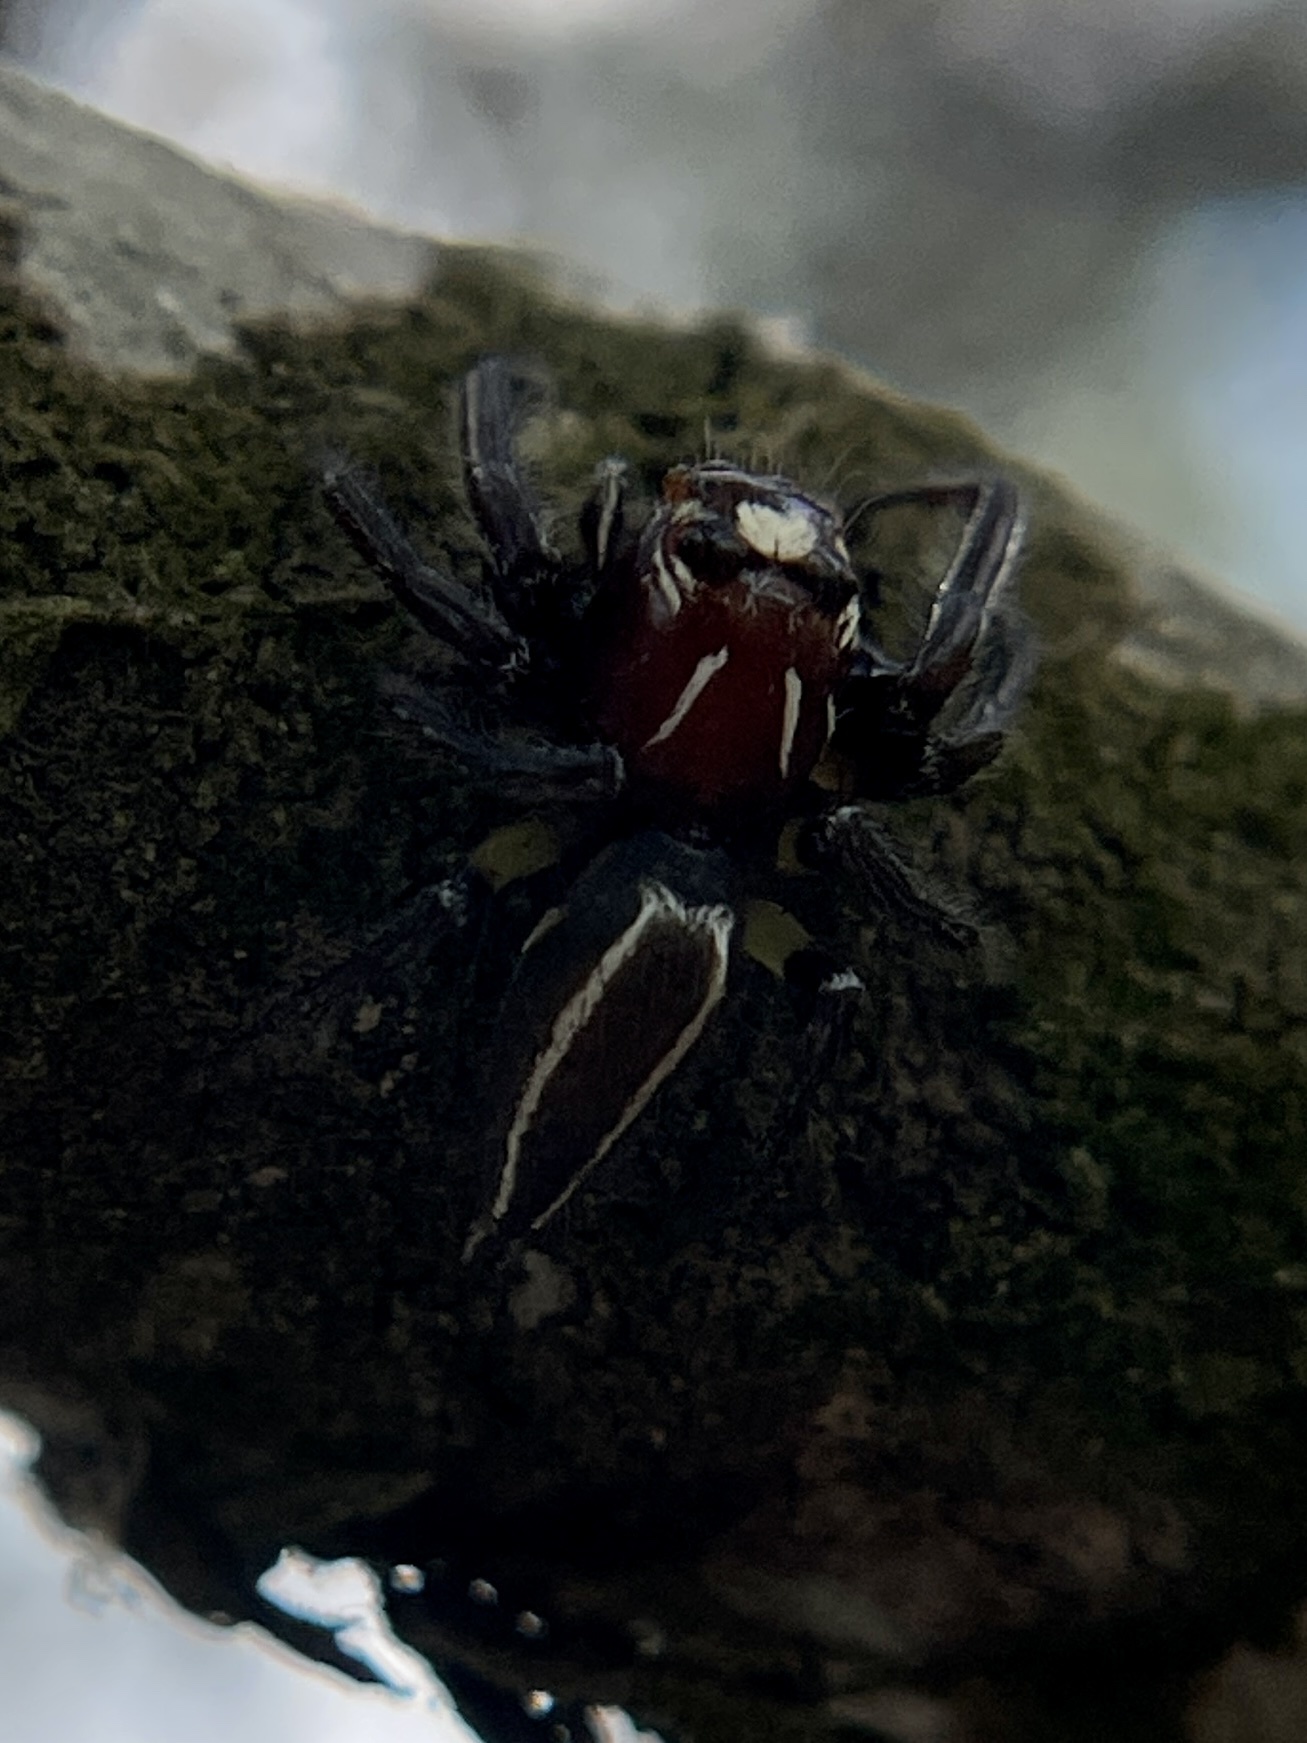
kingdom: Animalia
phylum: Arthropoda
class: Arachnida
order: Araneae
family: Salticidae
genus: Colonus
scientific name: Colonus sylvanus
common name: Jumping spiders
